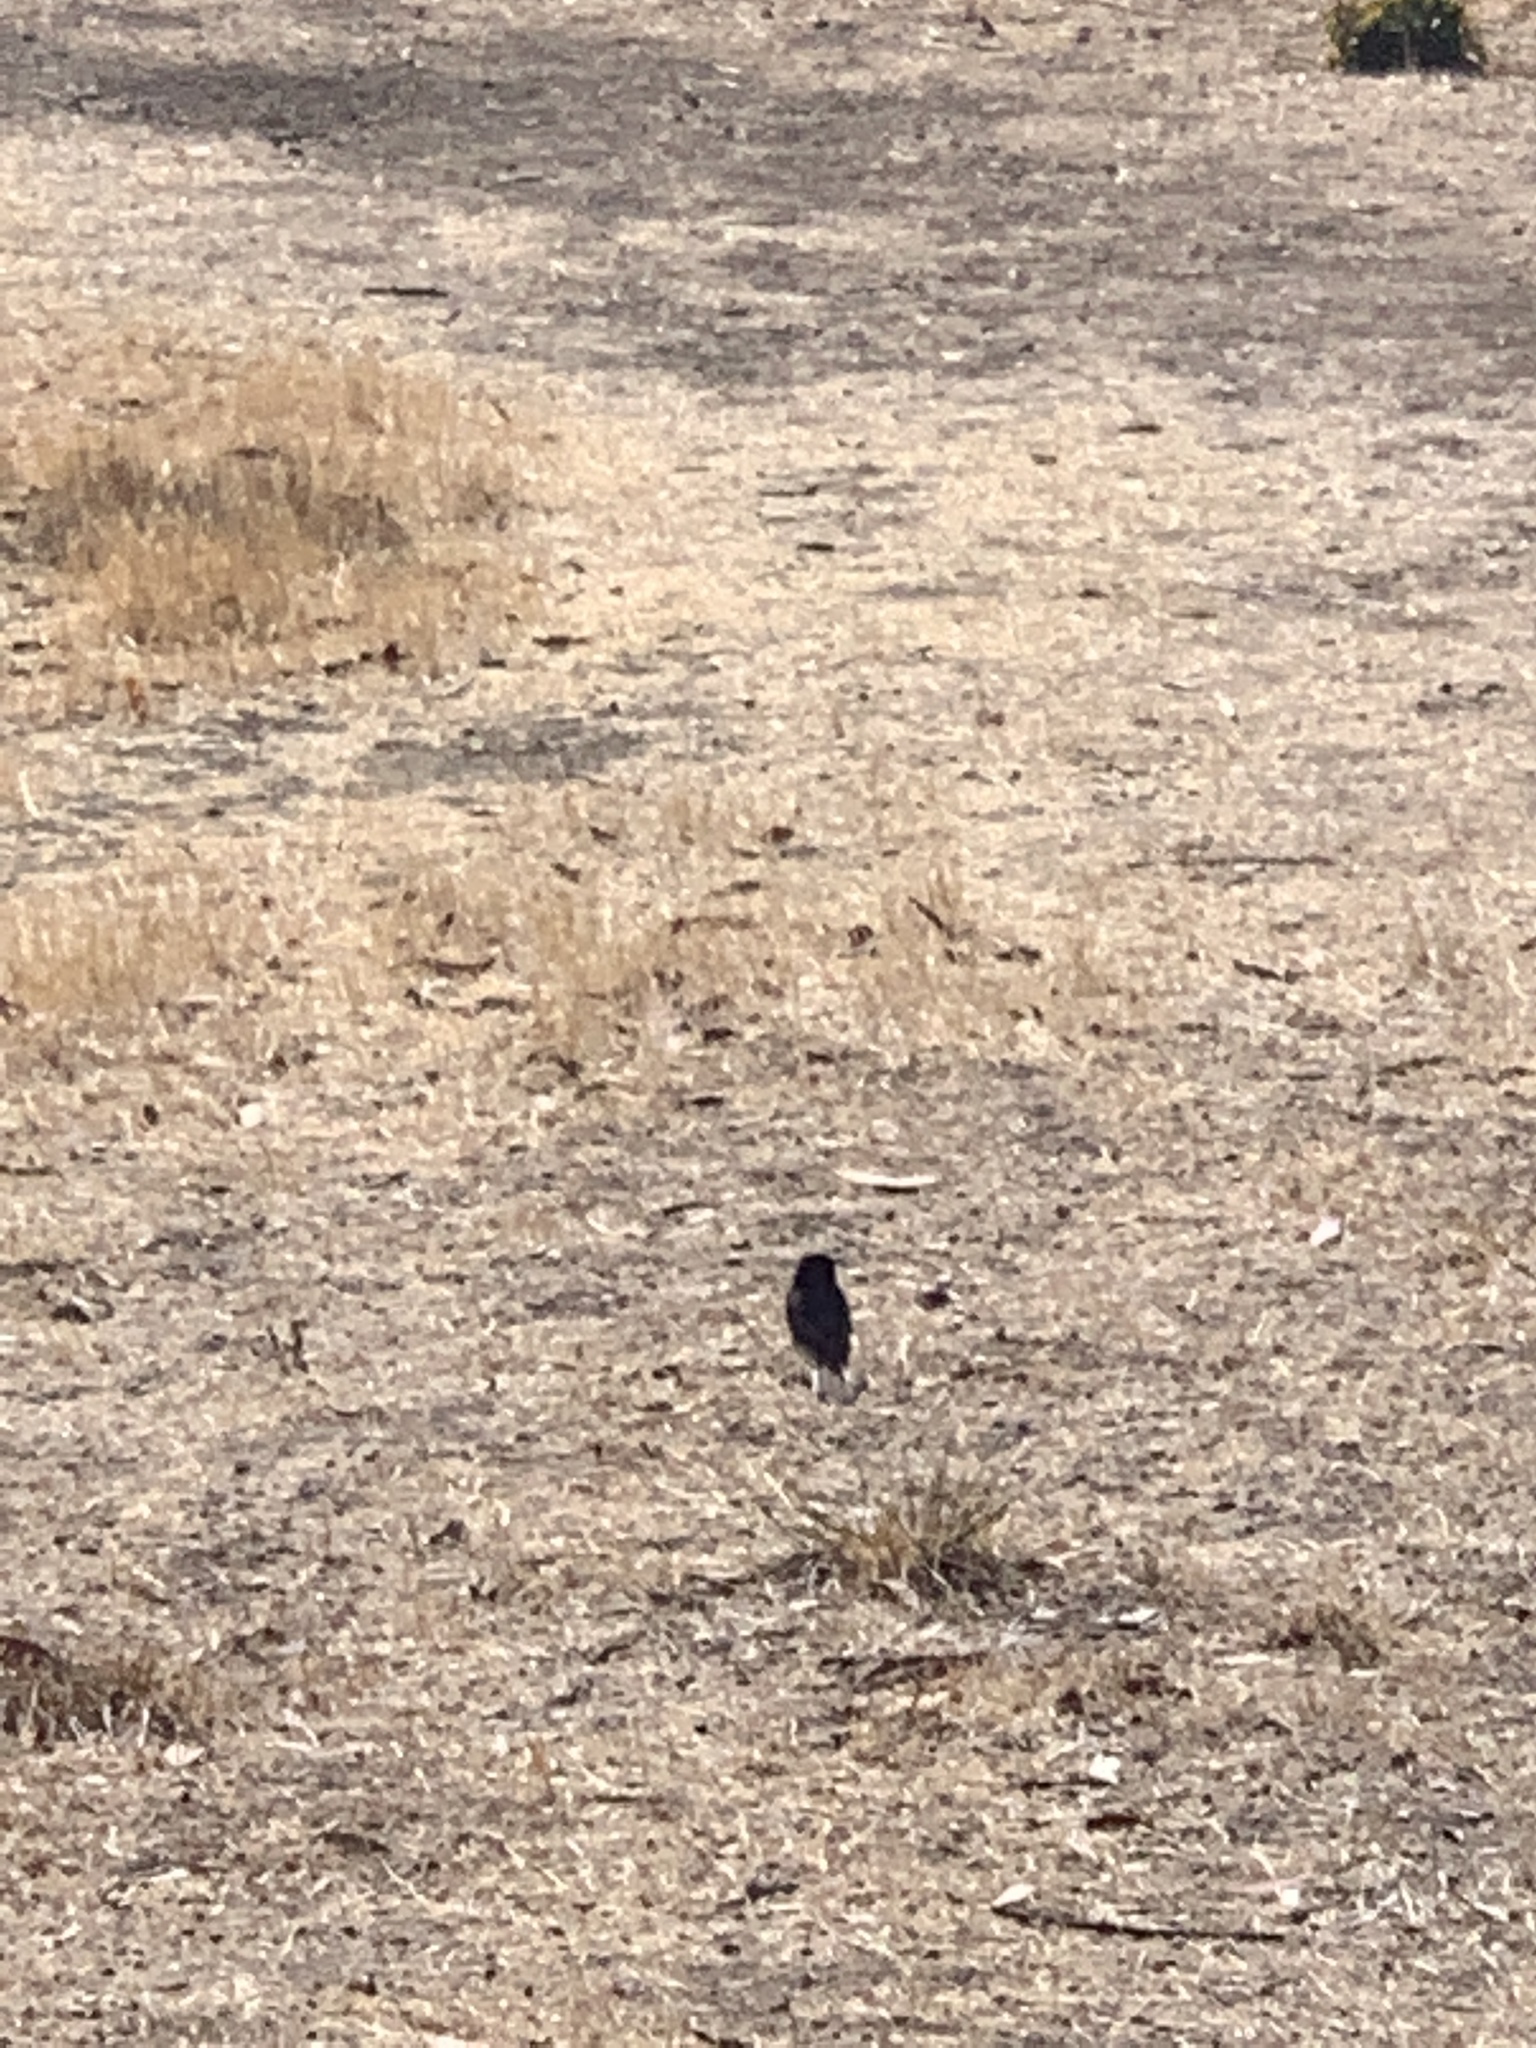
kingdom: Animalia
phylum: Chordata
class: Aves
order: Passeriformes
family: Tyrannidae
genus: Sayornis
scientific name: Sayornis nigricans
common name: Black phoebe
